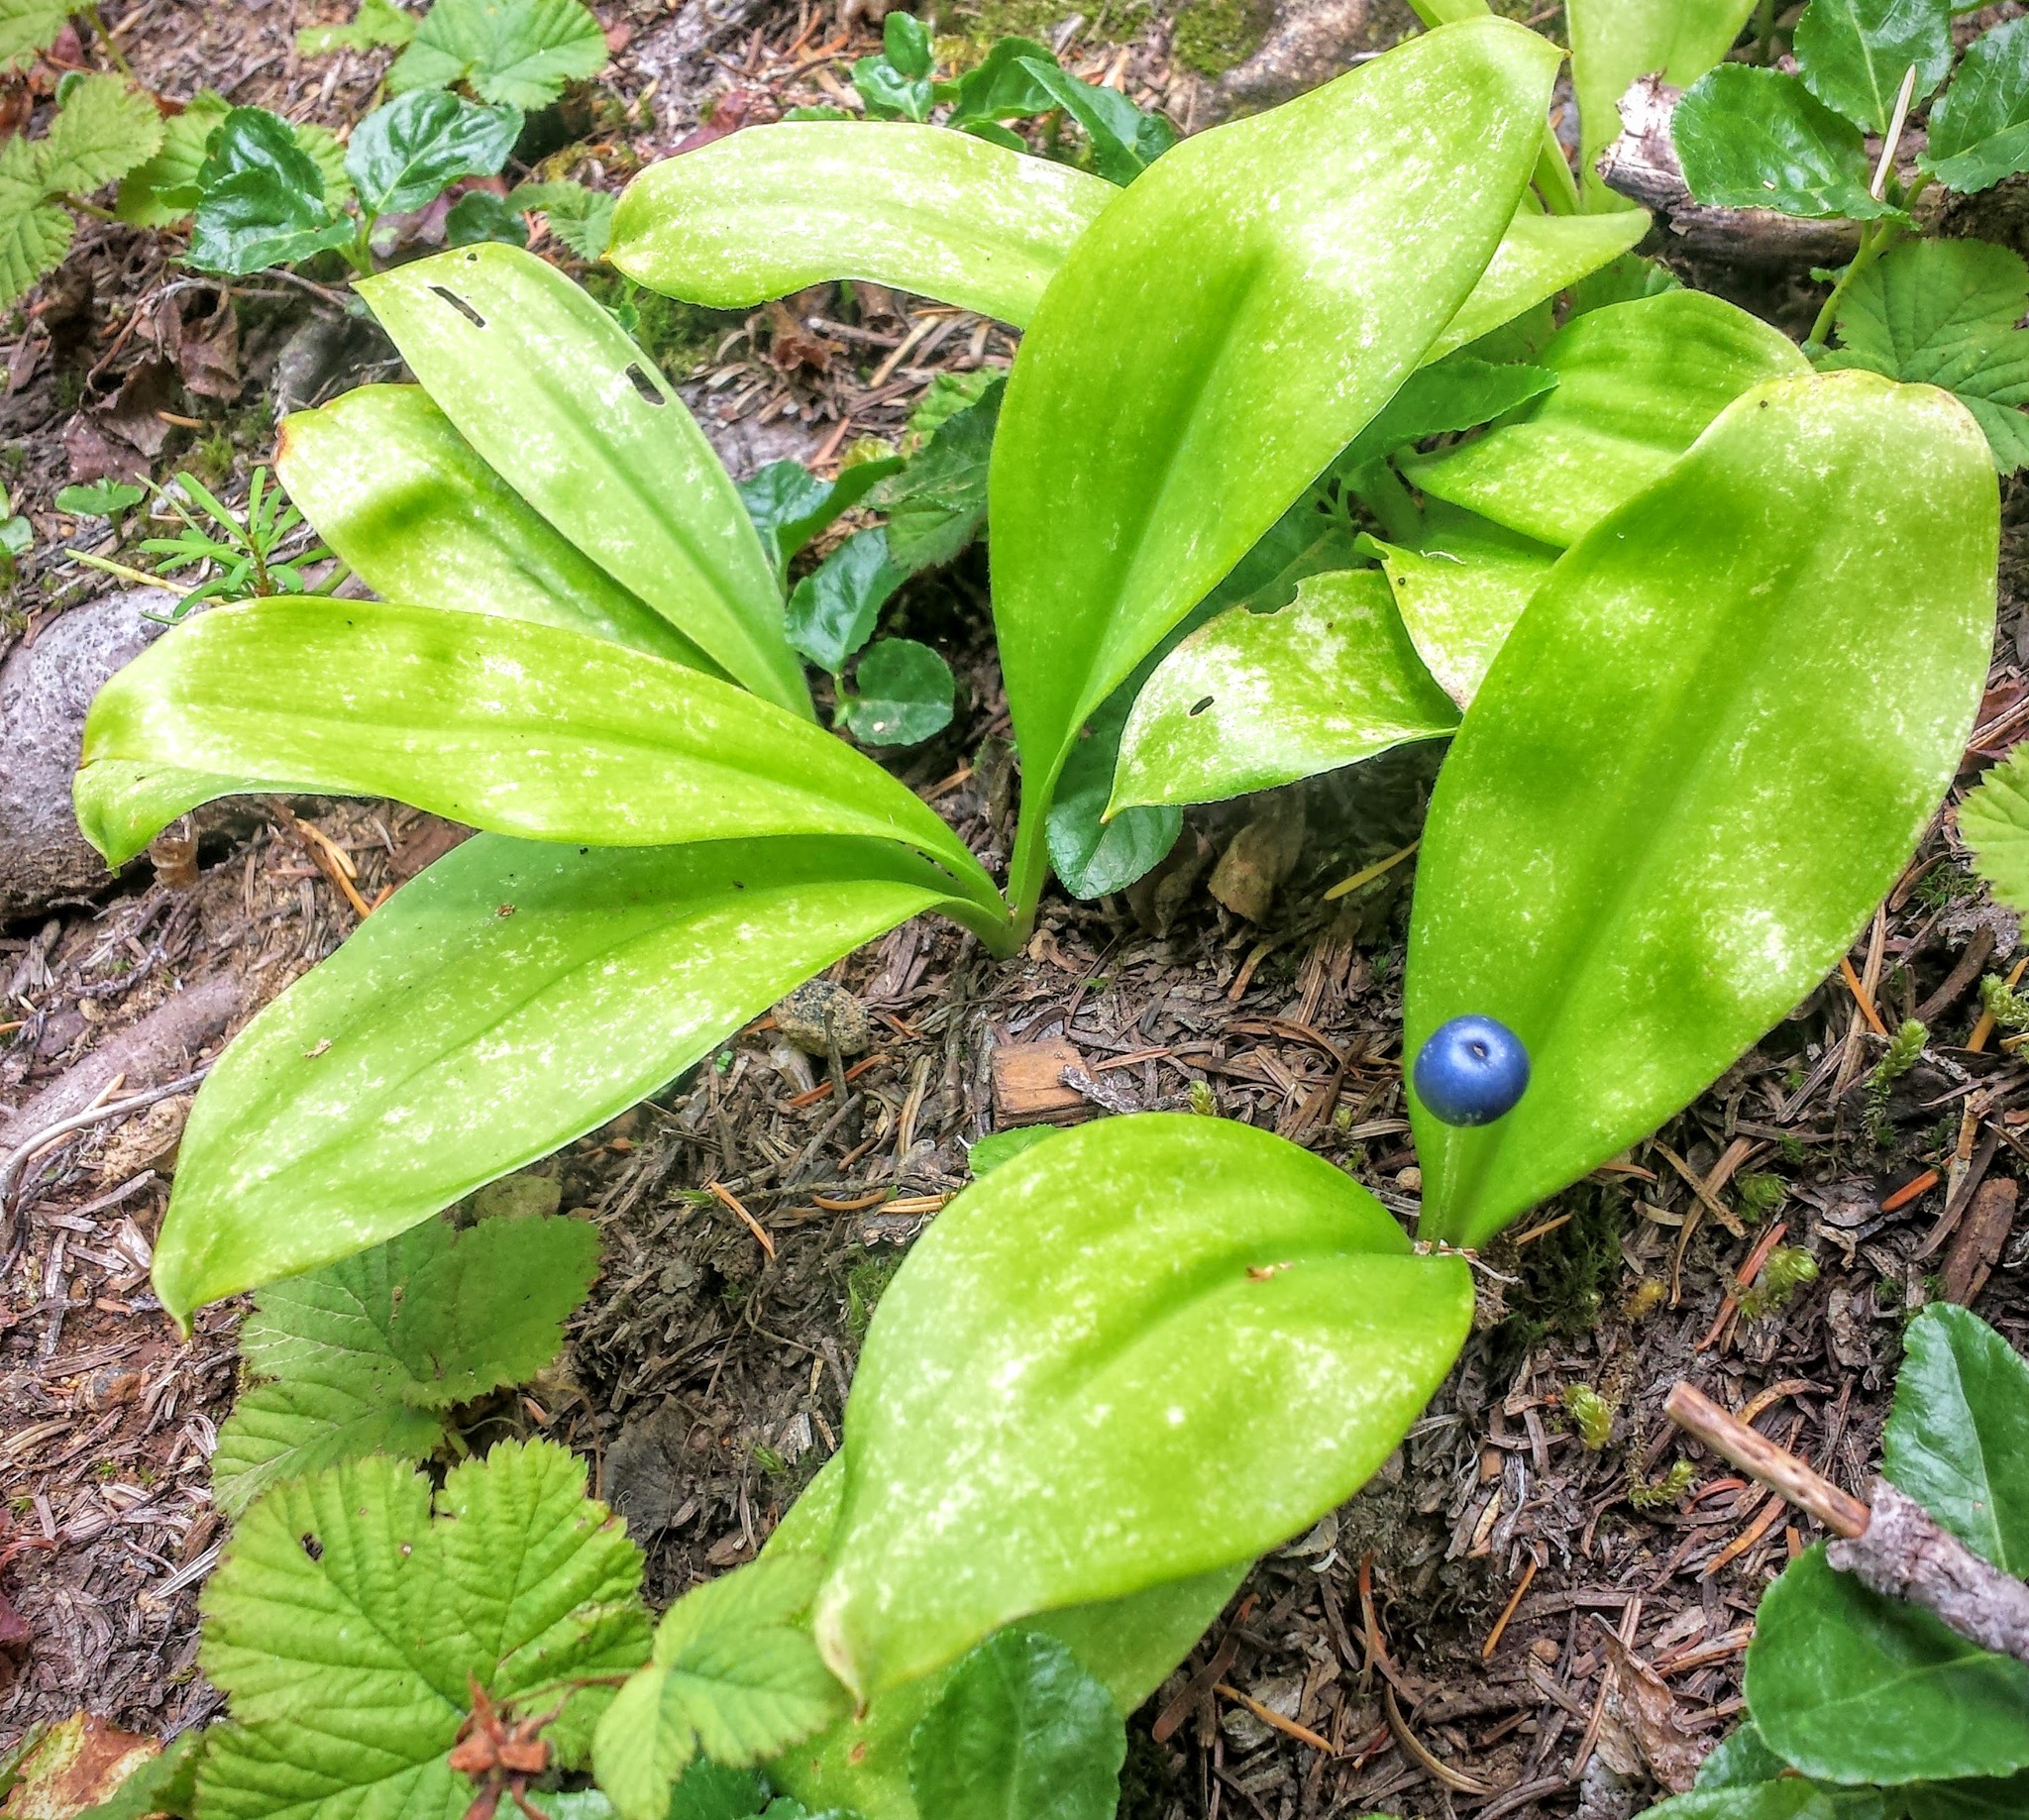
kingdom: Plantae
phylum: Tracheophyta
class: Liliopsida
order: Liliales
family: Liliaceae
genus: Clintonia
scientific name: Clintonia uniflora
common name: Queen's cup
